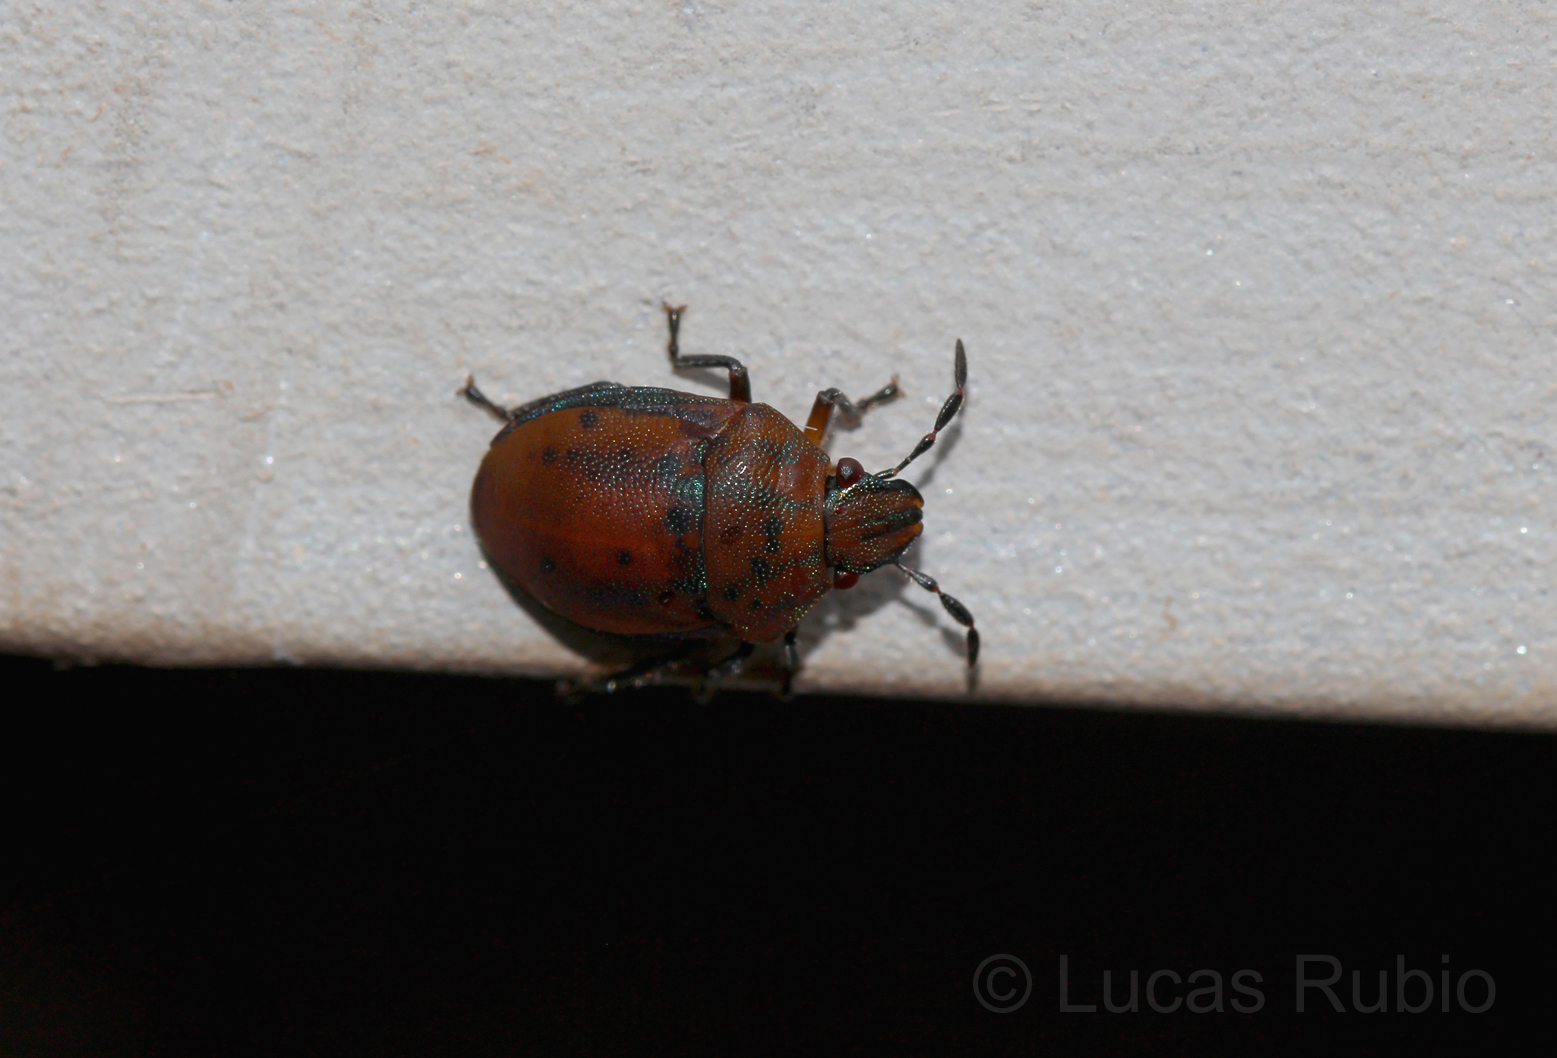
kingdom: Animalia
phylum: Arthropoda
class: Insecta
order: Hemiptera
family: Scutelleridae
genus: Coptochilus
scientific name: Coptochilus lentiginosus
